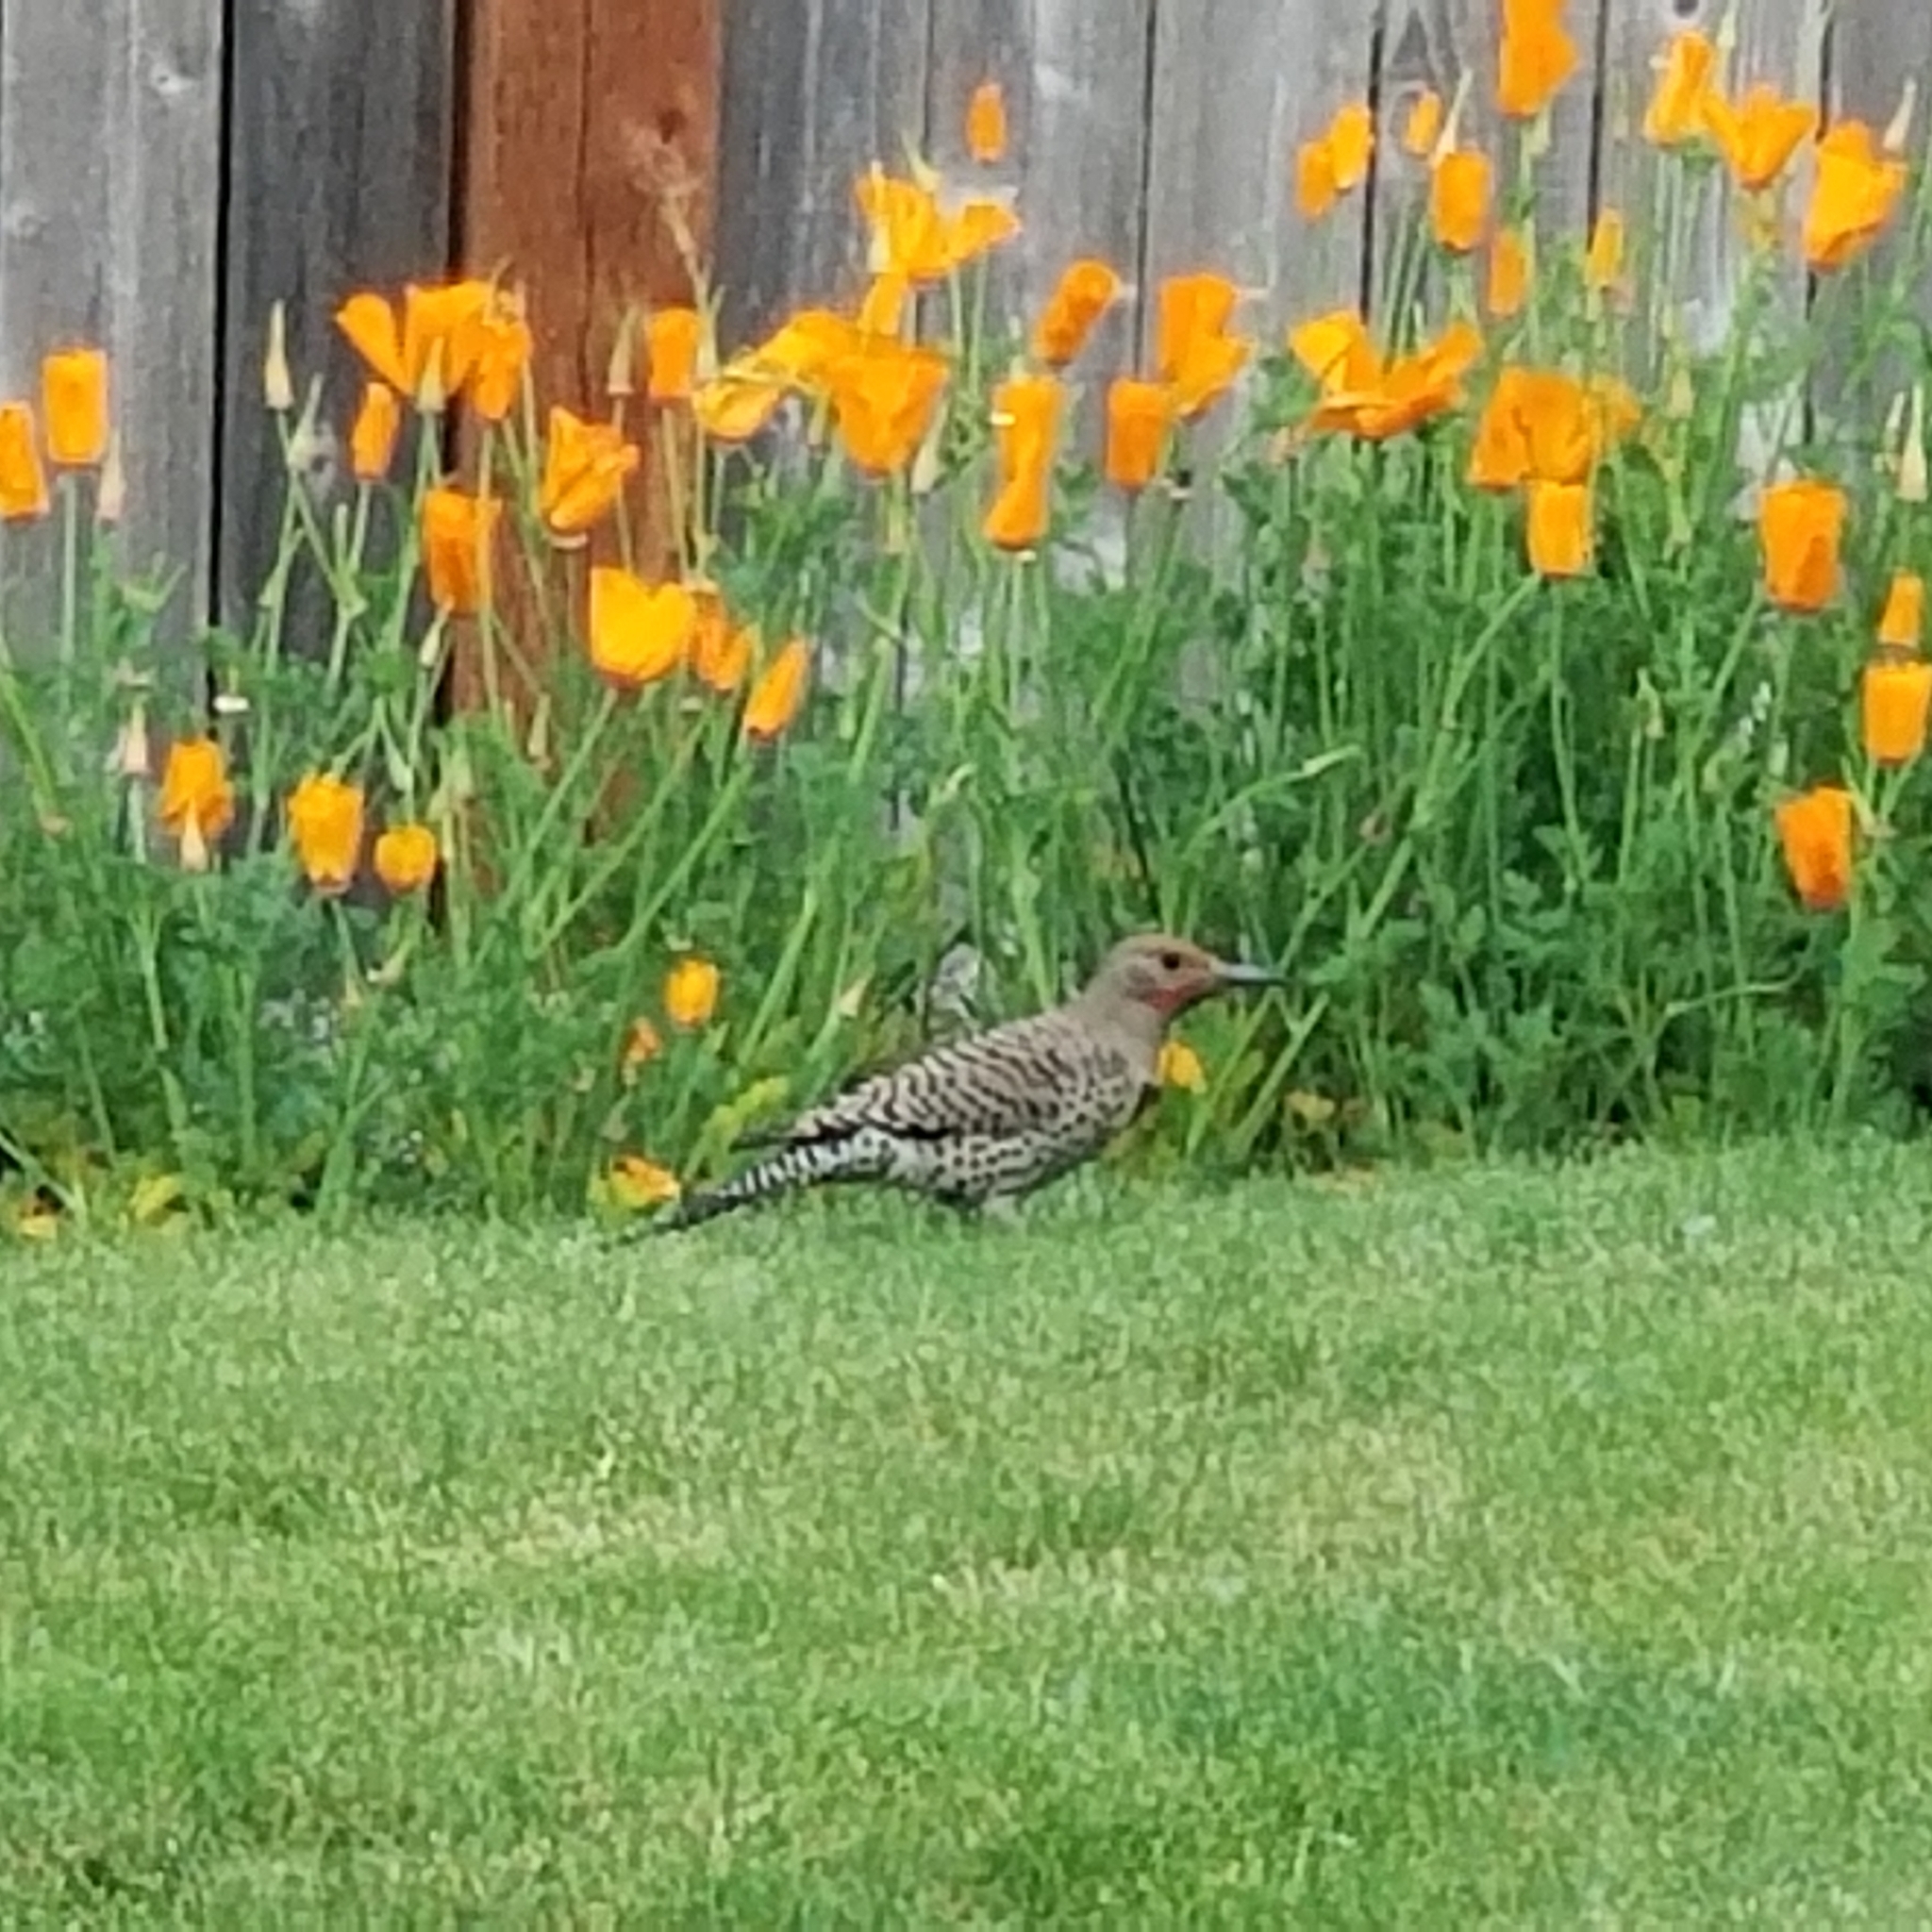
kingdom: Animalia
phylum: Chordata
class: Aves
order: Piciformes
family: Picidae
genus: Colaptes
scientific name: Colaptes auratus
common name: Northern flicker
